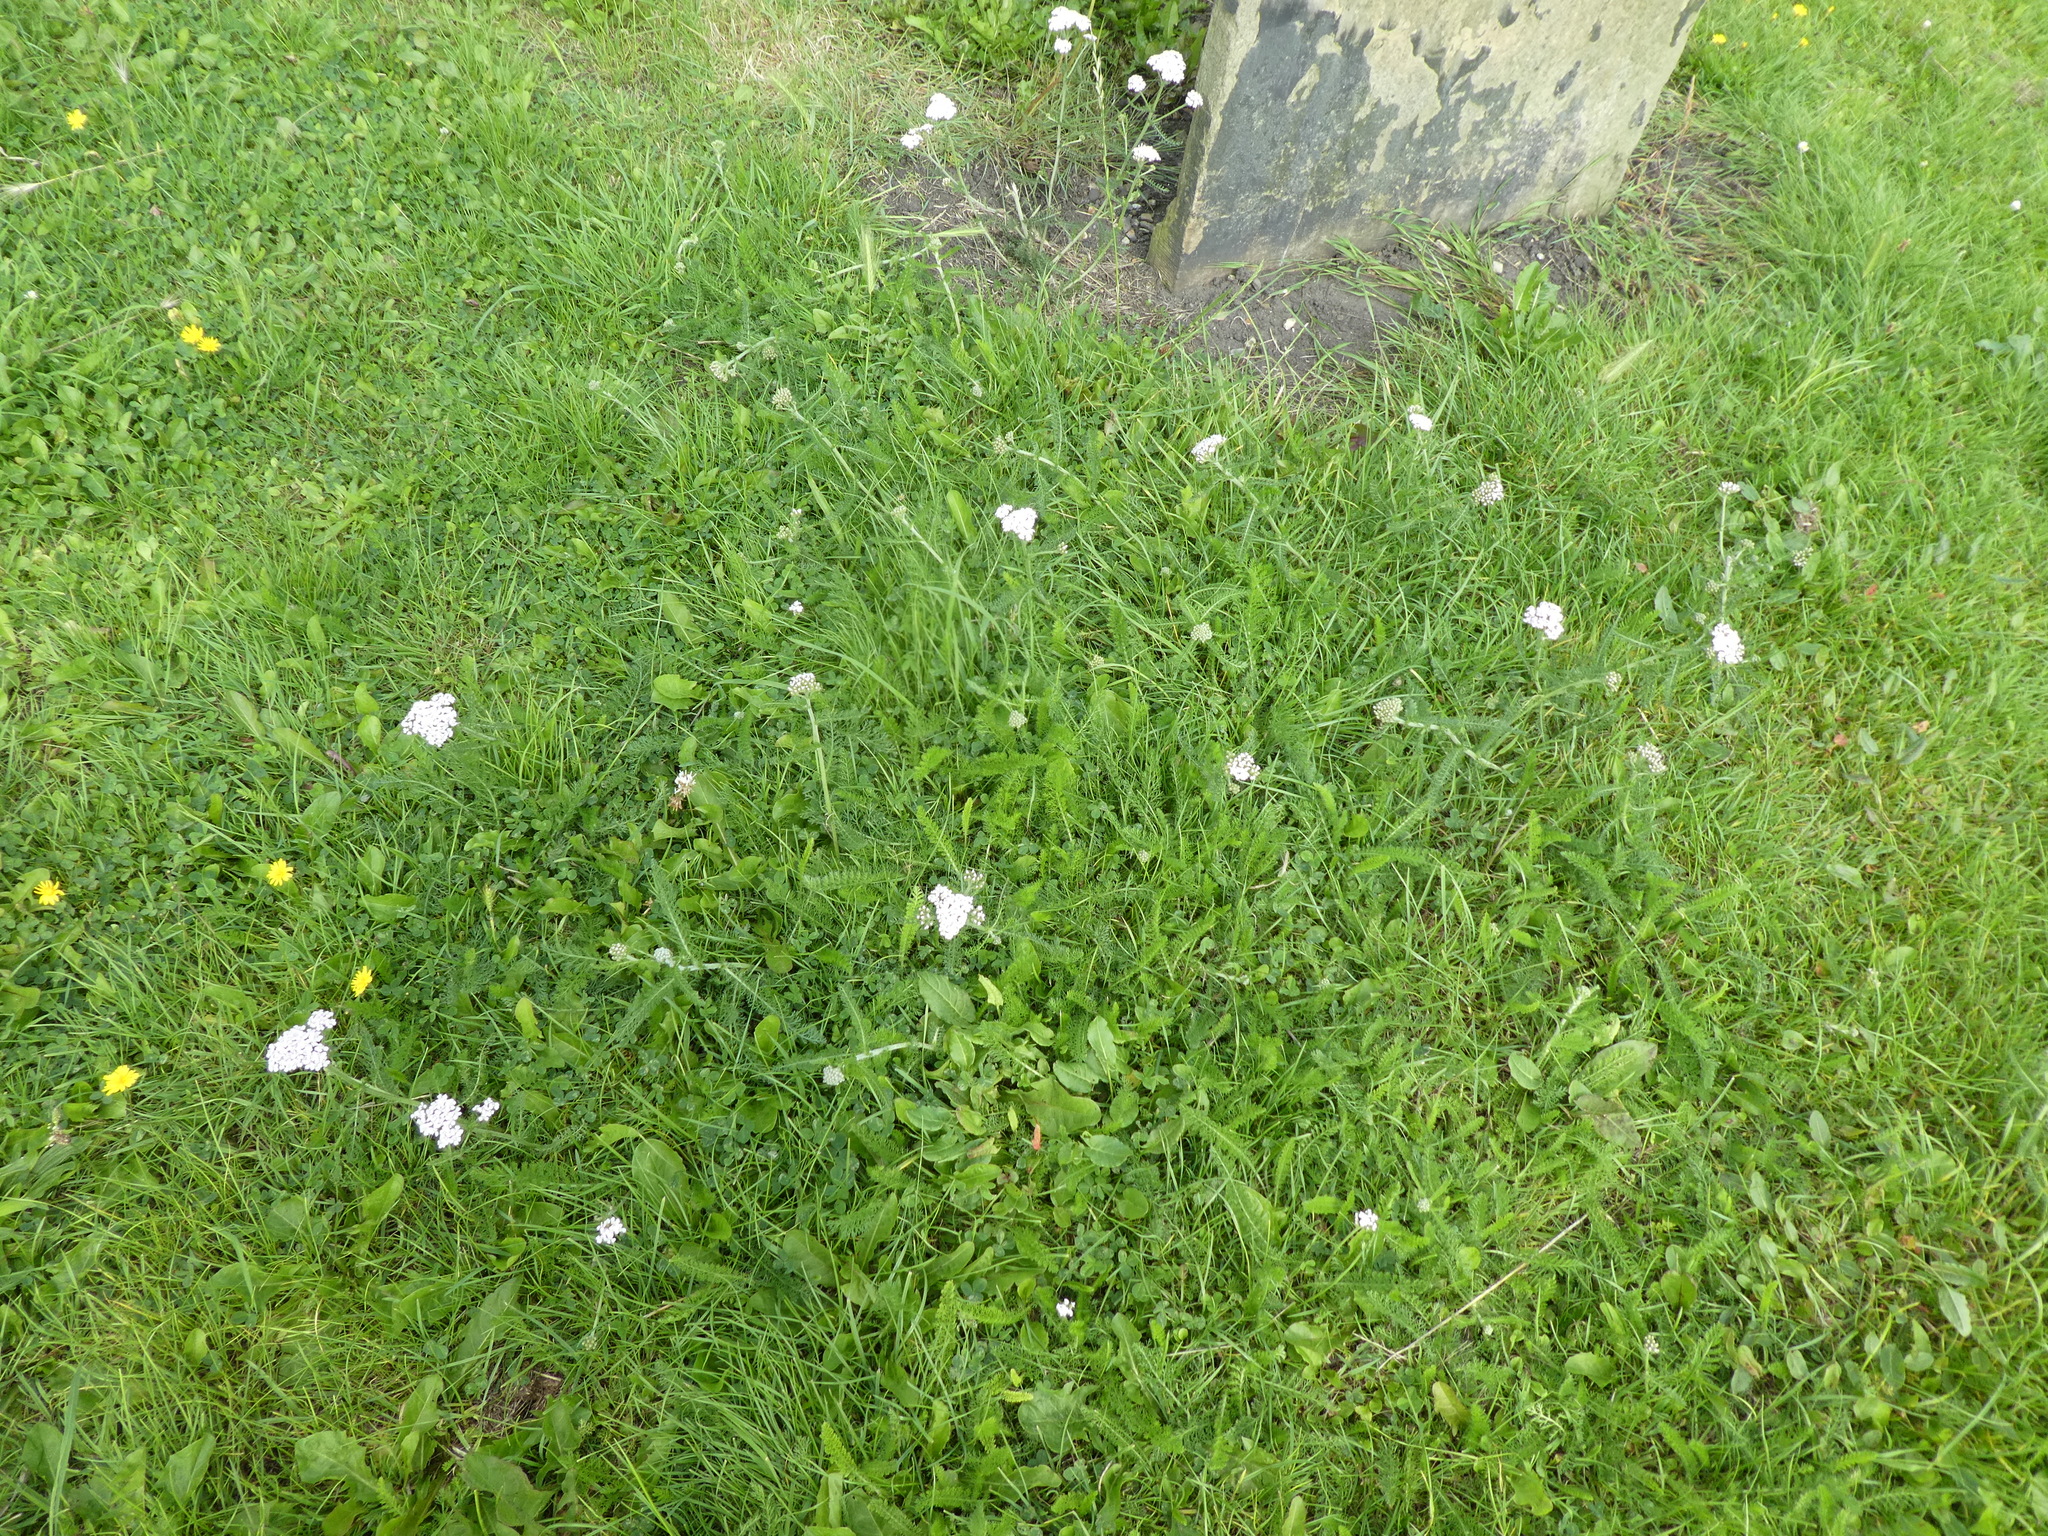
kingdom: Plantae
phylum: Tracheophyta
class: Magnoliopsida
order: Asterales
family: Asteraceae
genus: Achillea
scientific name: Achillea millefolium
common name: Yarrow
